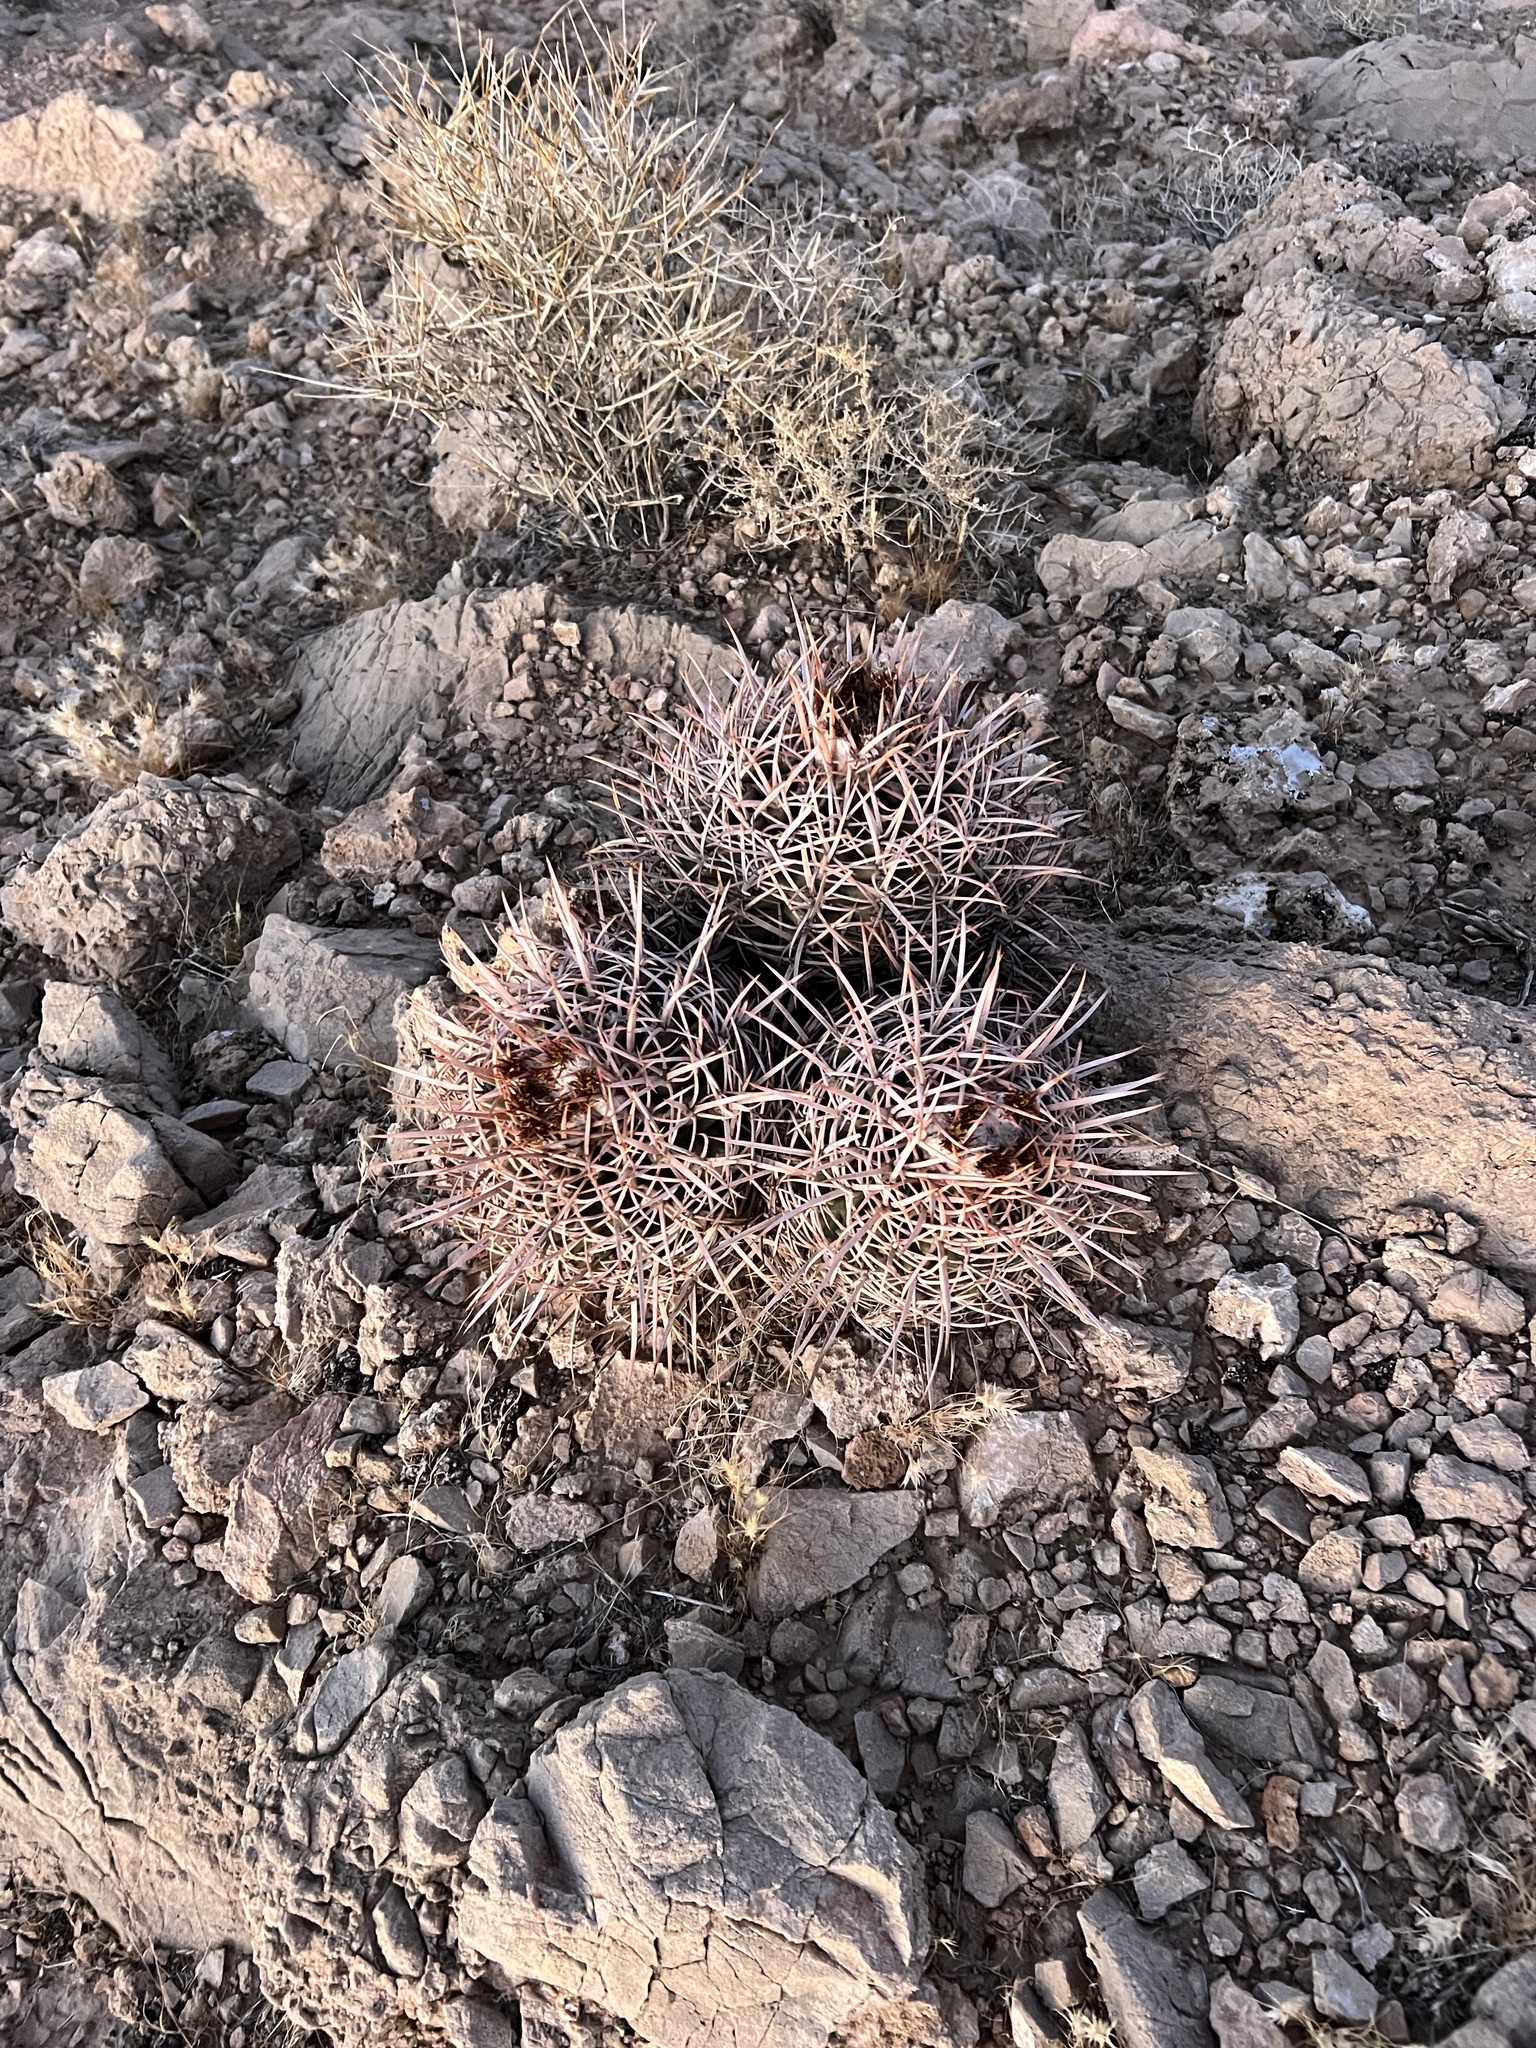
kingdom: Plantae
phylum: Tracheophyta
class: Magnoliopsida
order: Caryophyllales
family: Cactaceae
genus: Echinocactus
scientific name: Echinocactus polycephalus
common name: Cottontop cactus
